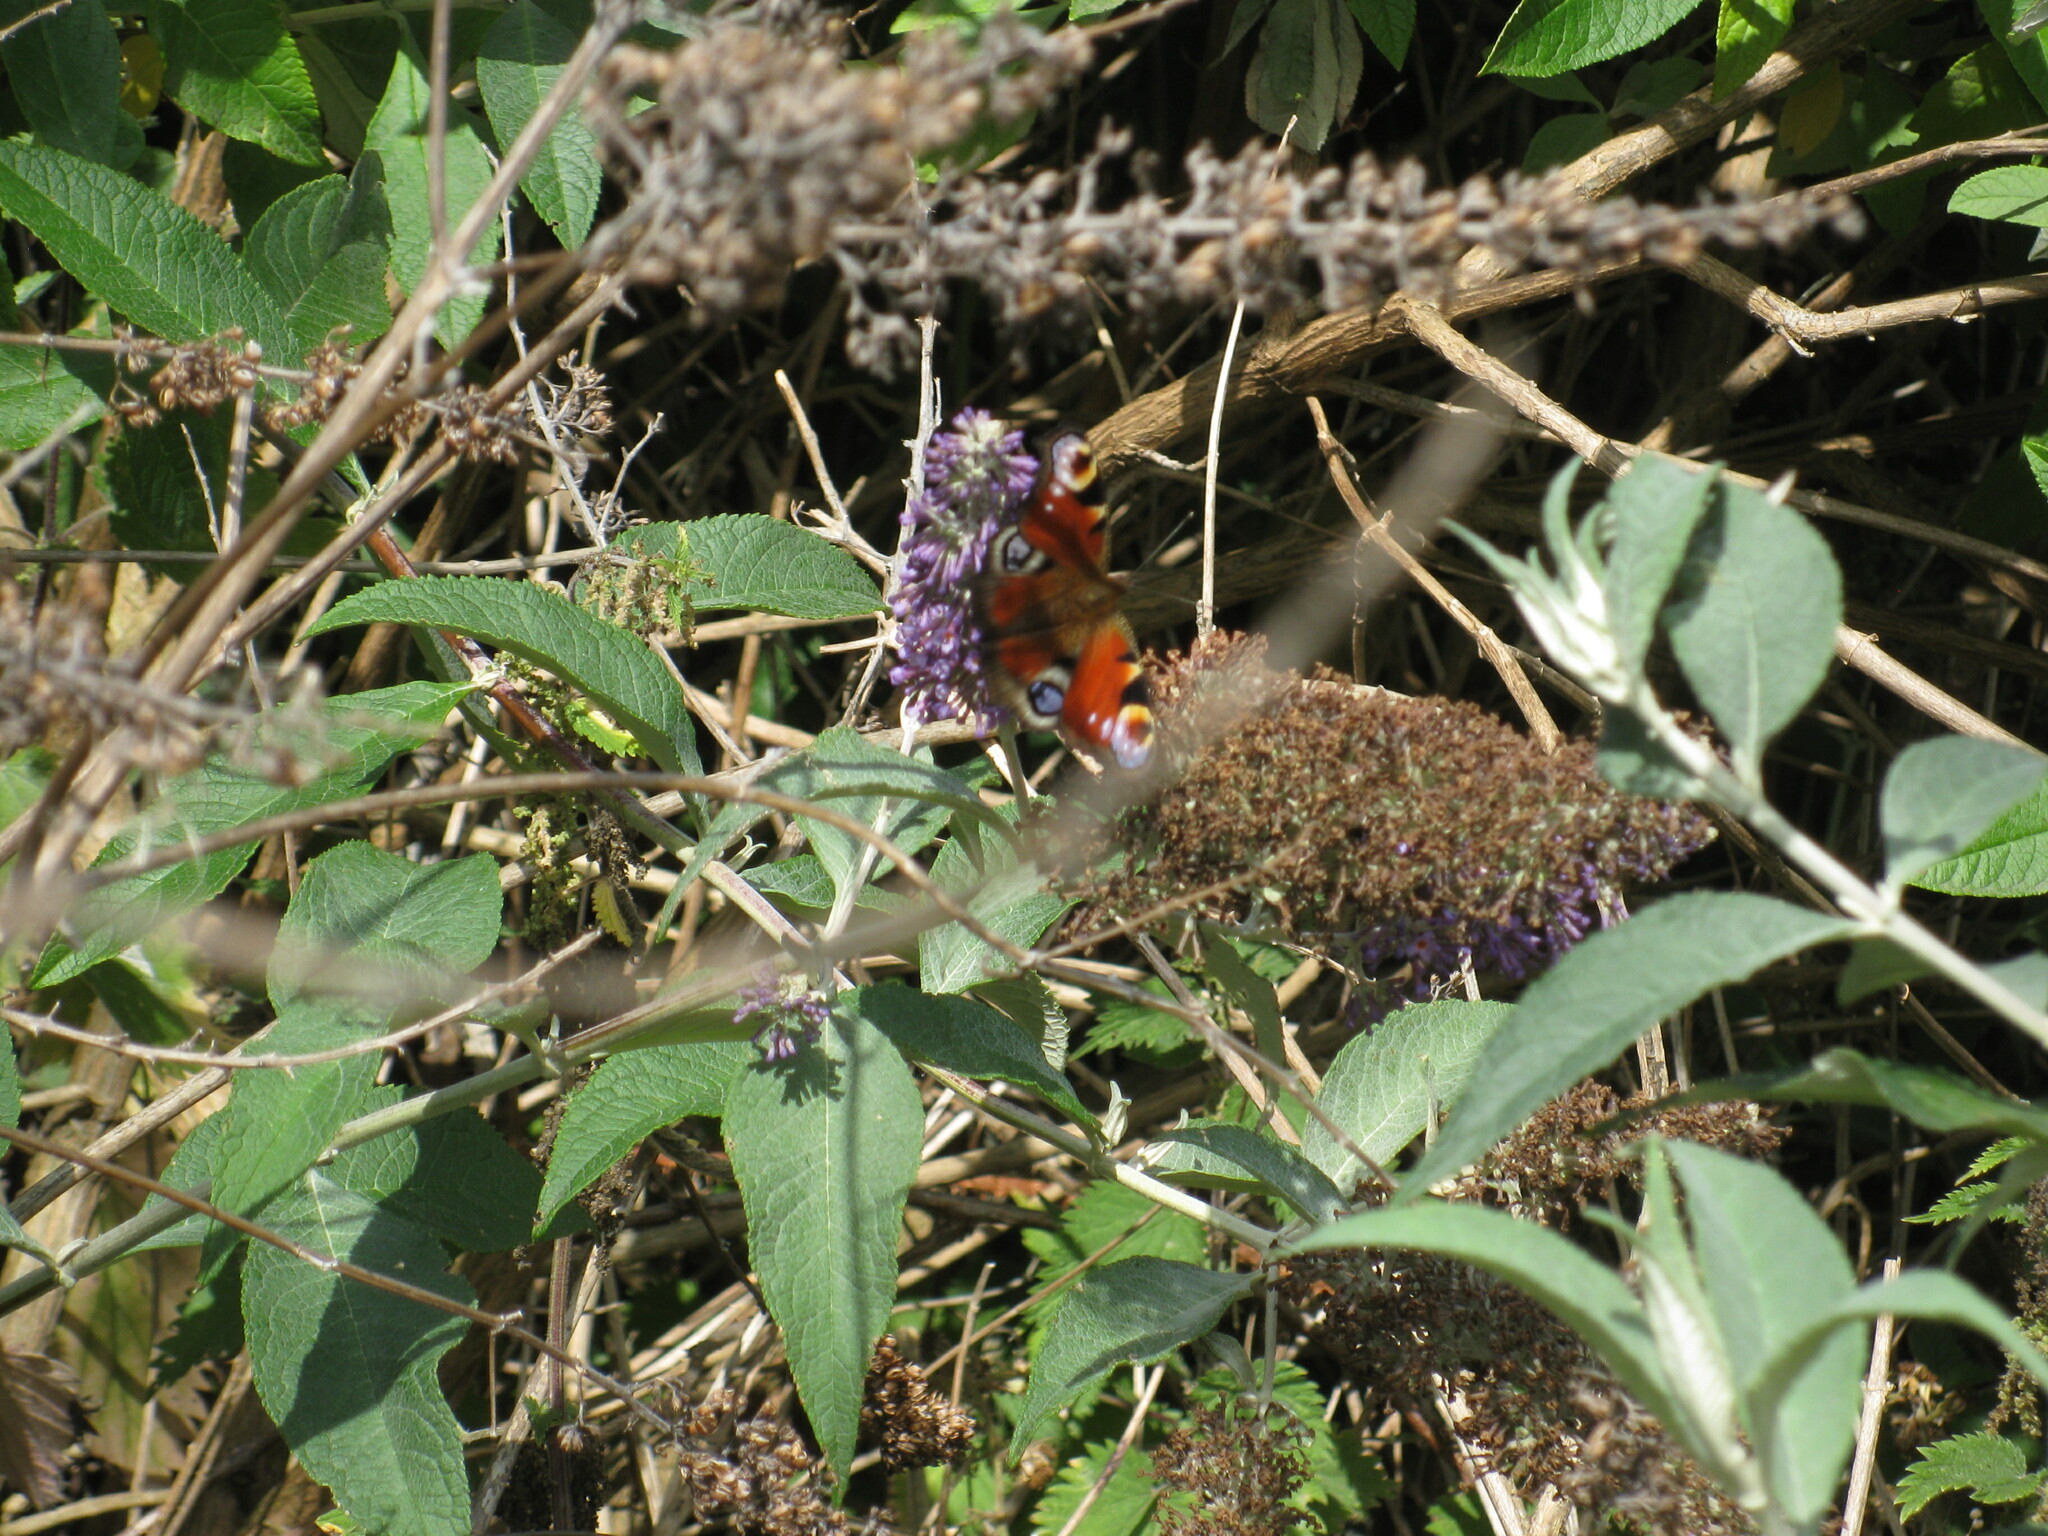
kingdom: Animalia
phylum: Arthropoda
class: Insecta
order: Lepidoptera
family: Nymphalidae
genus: Aglais
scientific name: Aglais io
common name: Peacock
